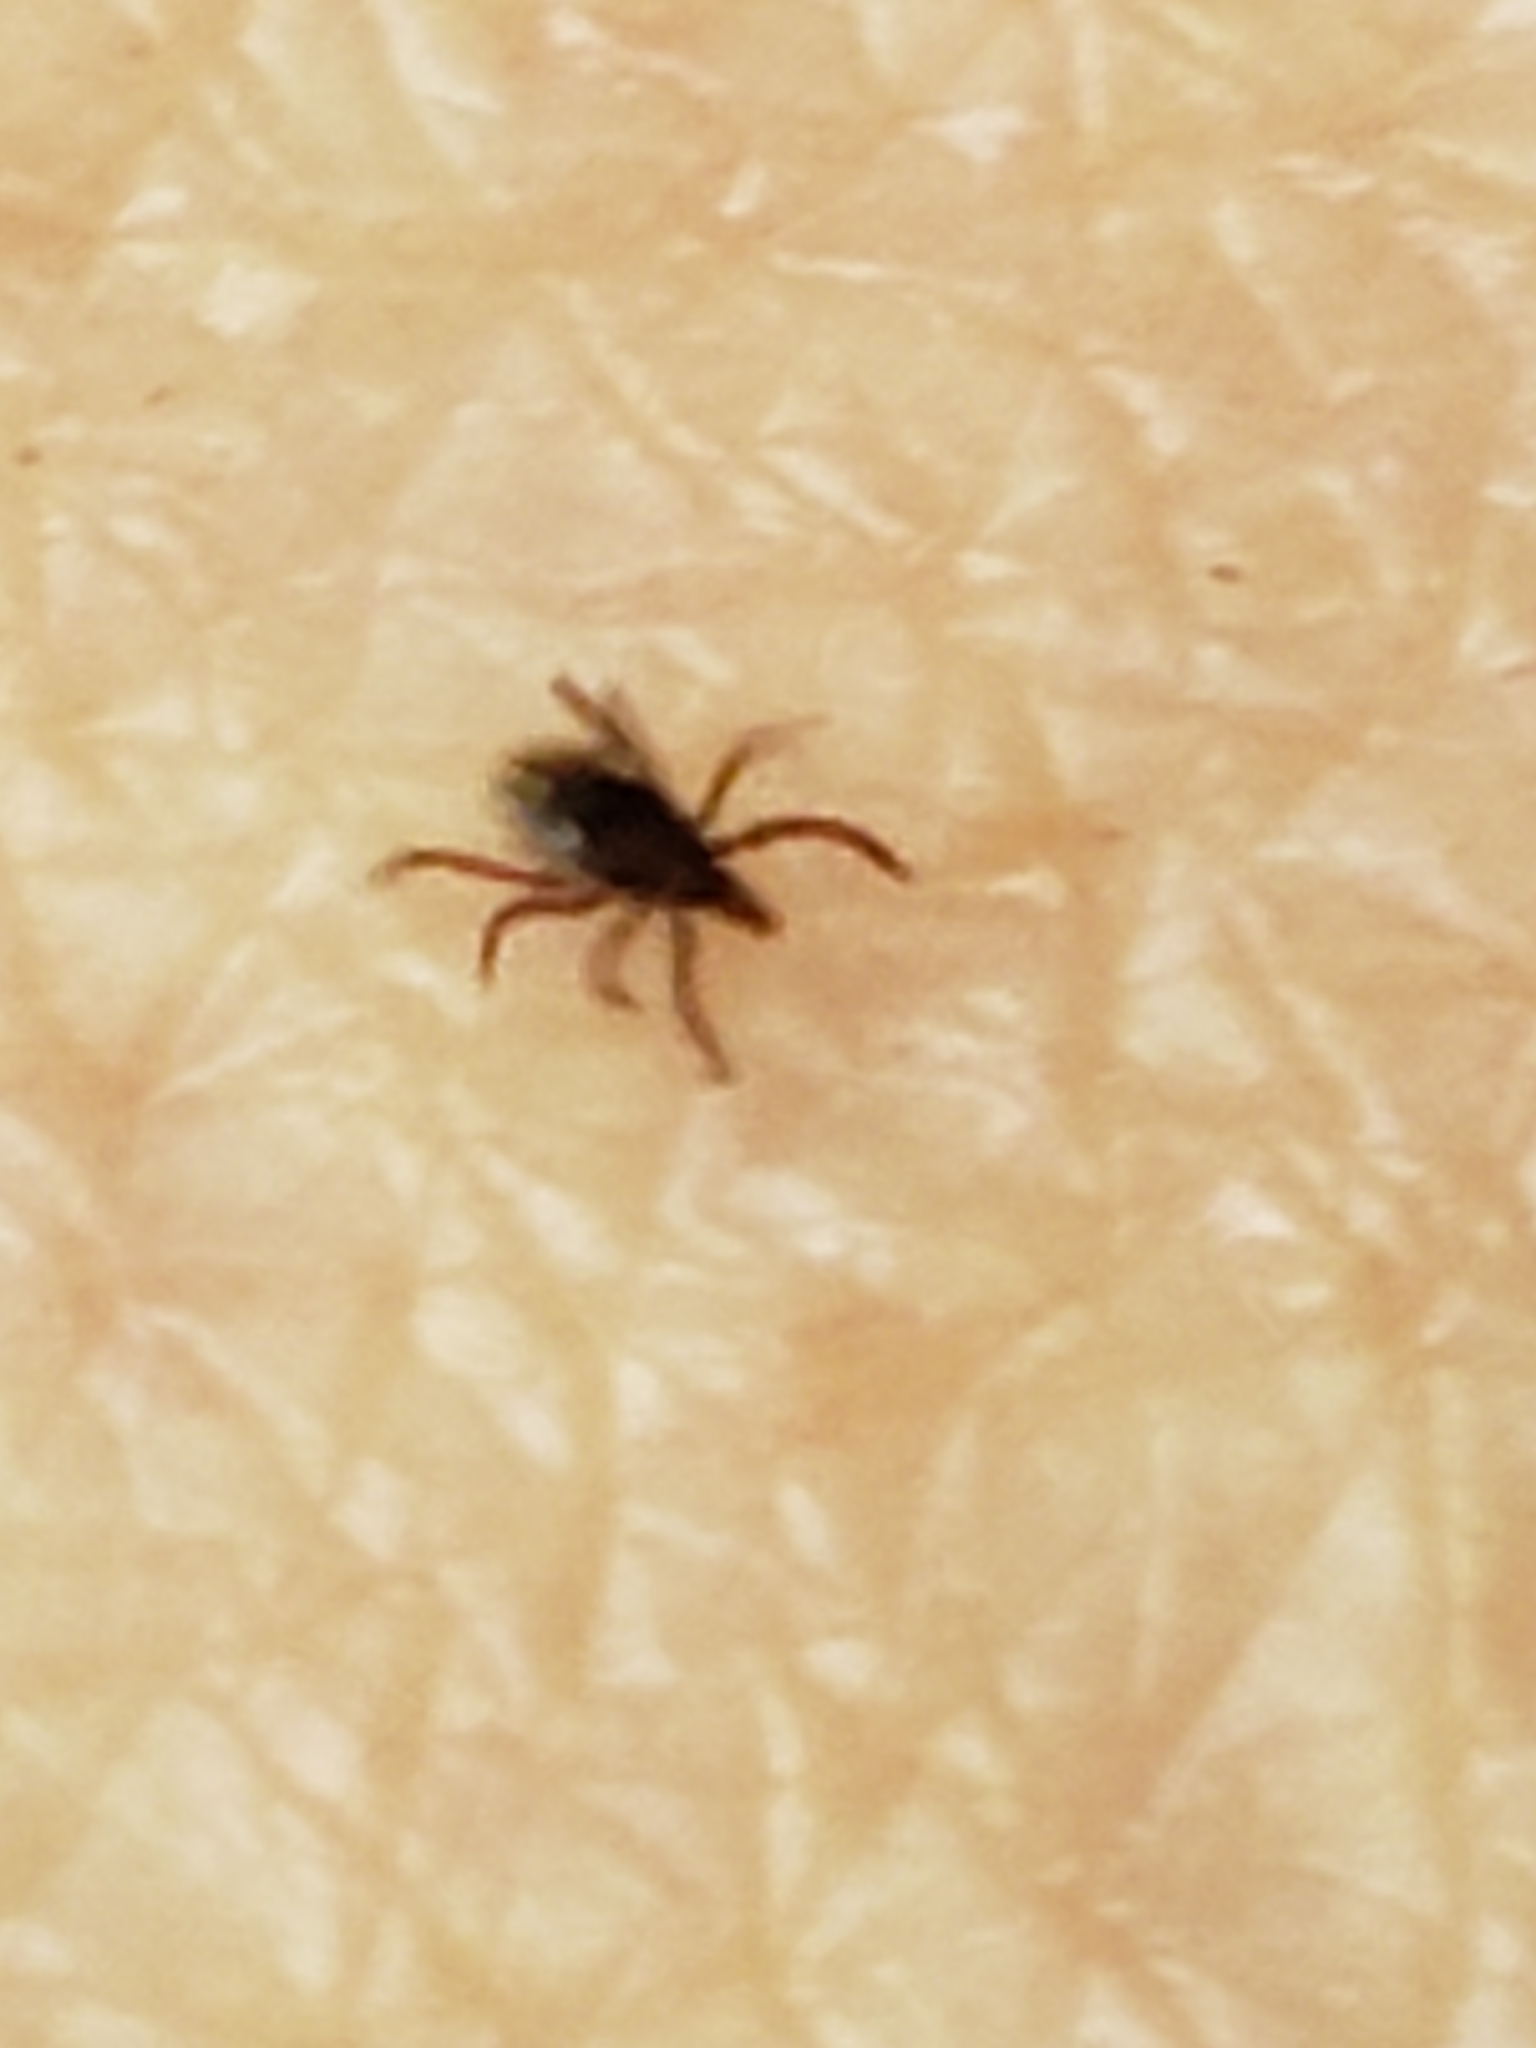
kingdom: Animalia
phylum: Arthropoda
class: Arachnida
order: Ixodida
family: Ixodidae
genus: Ixodes
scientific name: Ixodes scapularis
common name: Black legged tick
